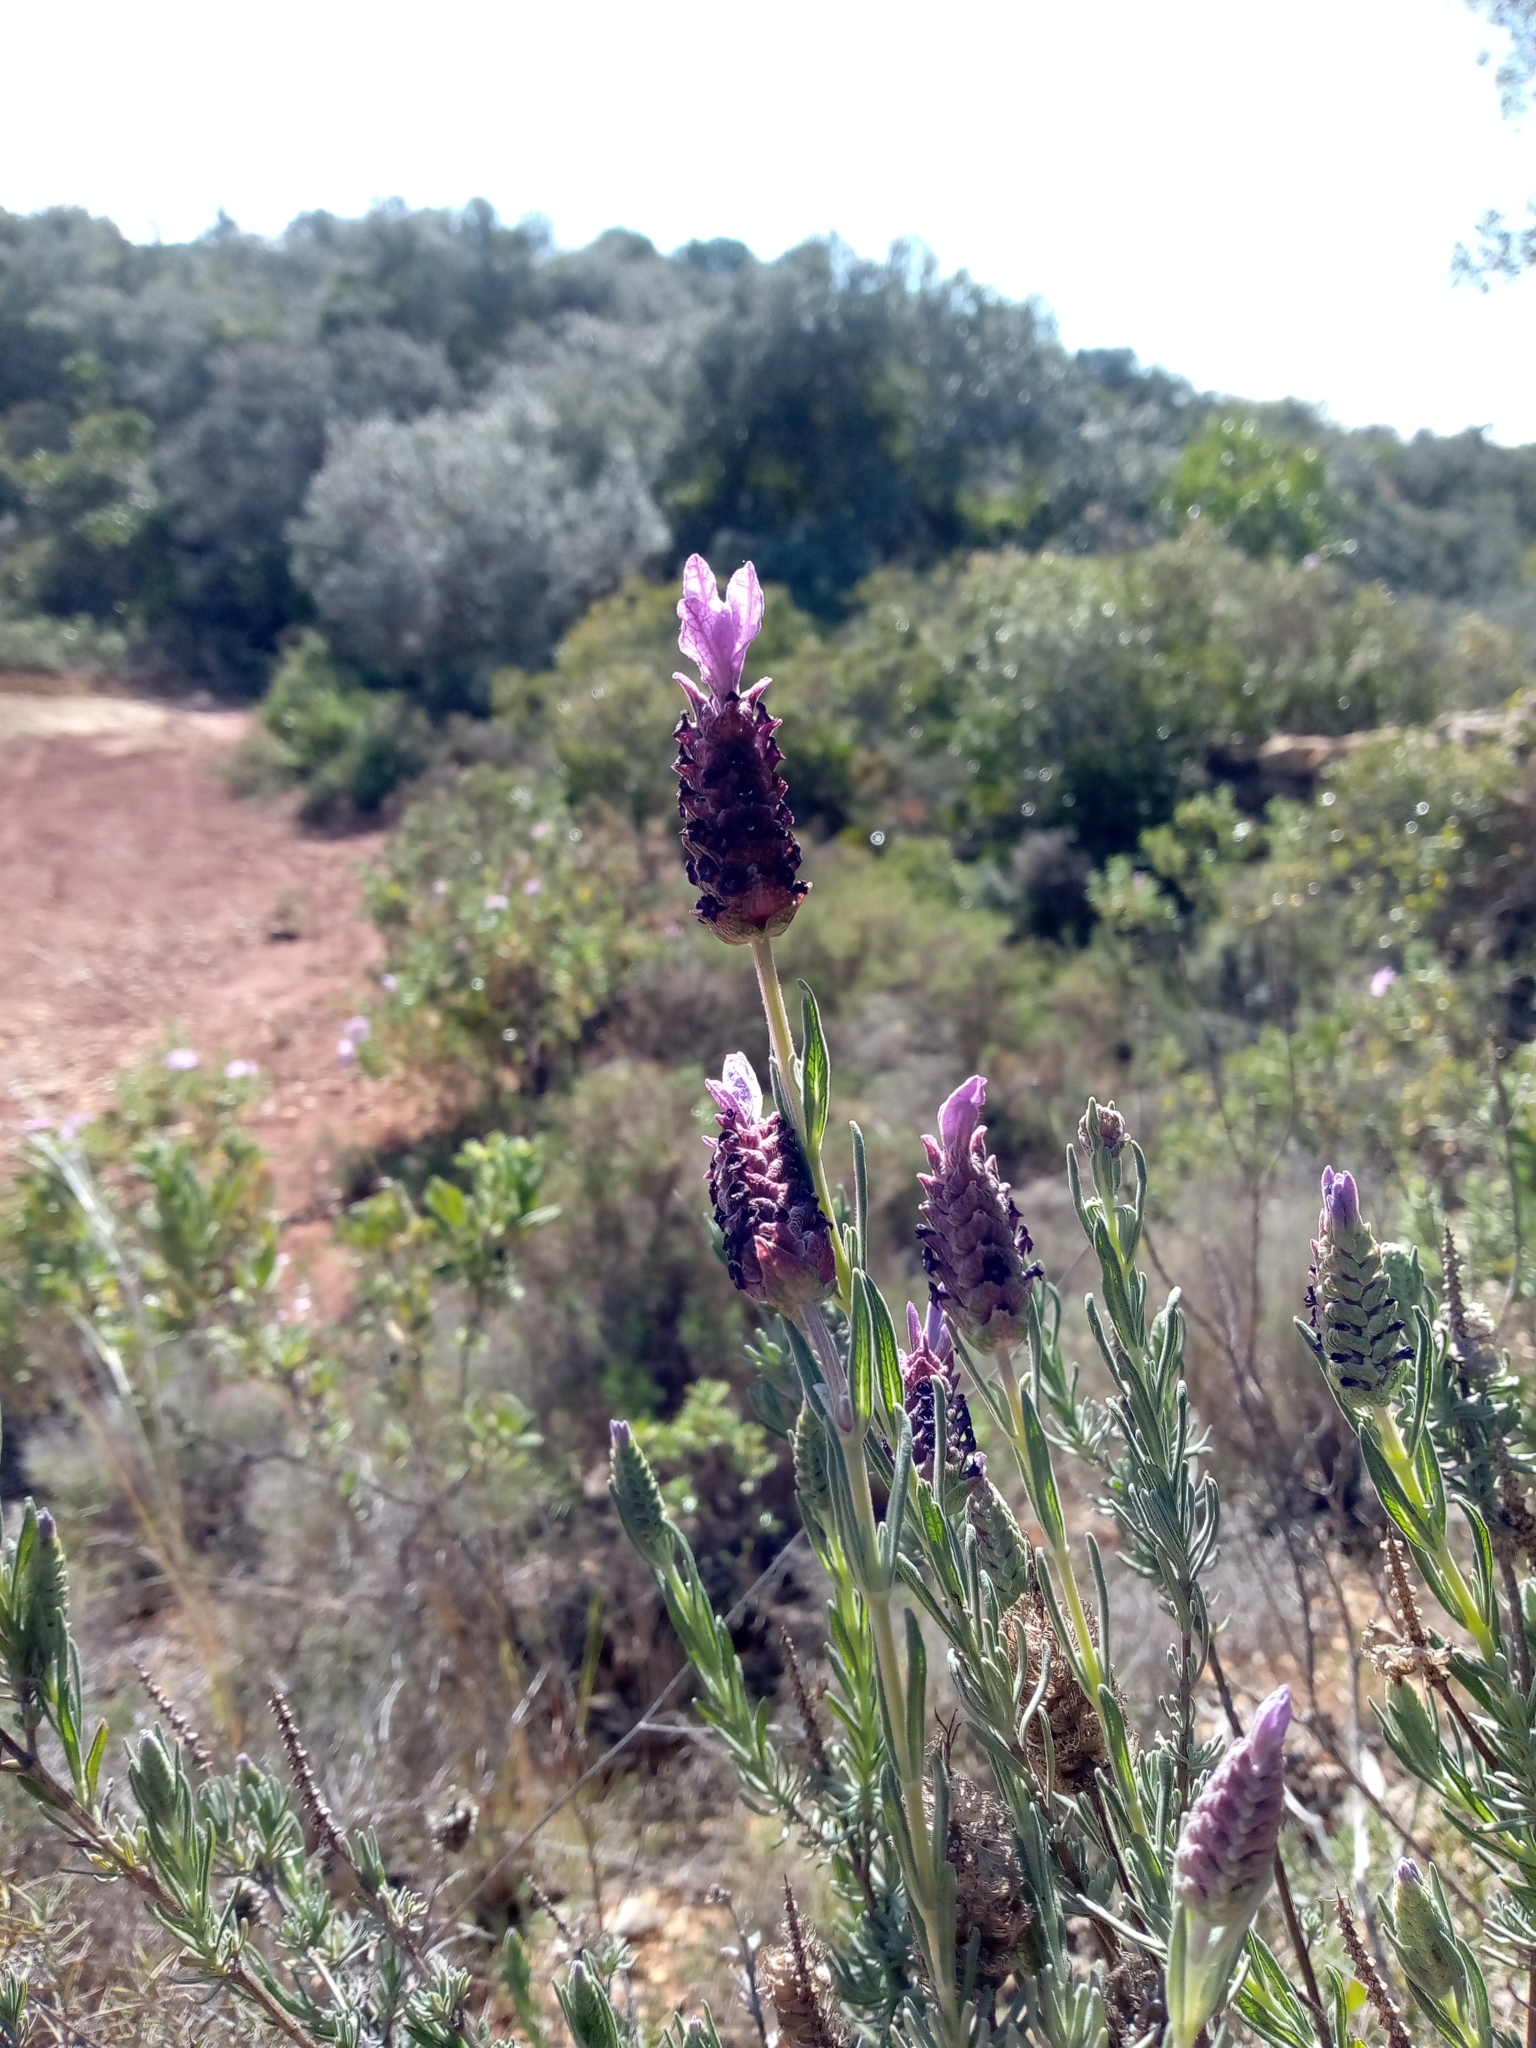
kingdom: Plantae
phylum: Tracheophyta
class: Magnoliopsida
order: Lamiales
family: Lamiaceae
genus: Lavandula
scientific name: Lavandula stoechas
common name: French lavender
